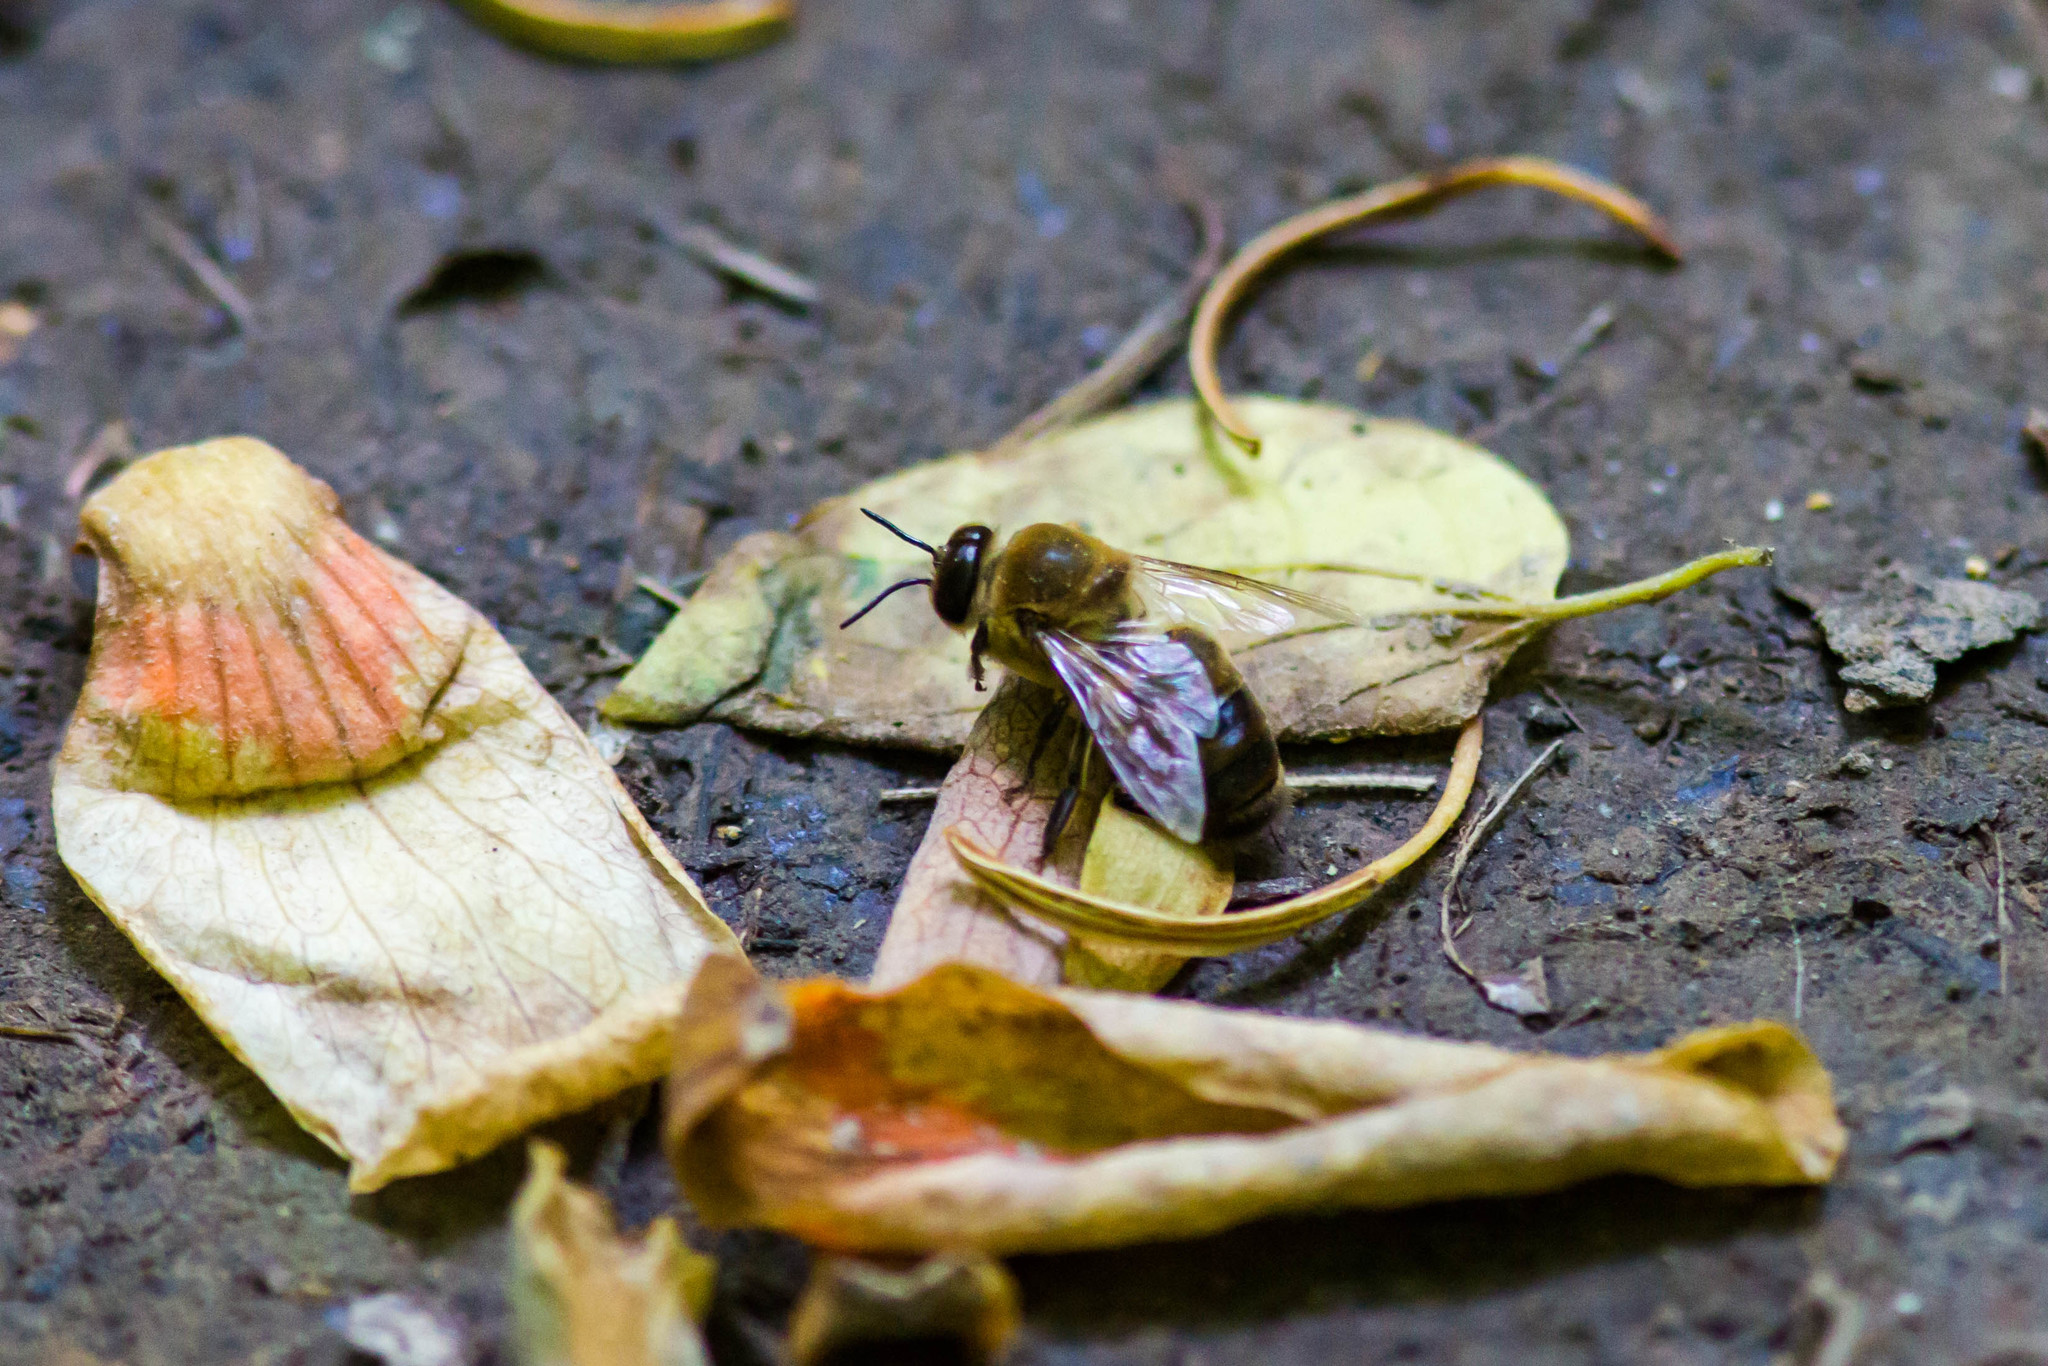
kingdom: Animalia
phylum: Arthropoda
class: Insecta
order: Hymenoptera
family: Apidae
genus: Apis
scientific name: Apis mellifera
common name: Honey bee
